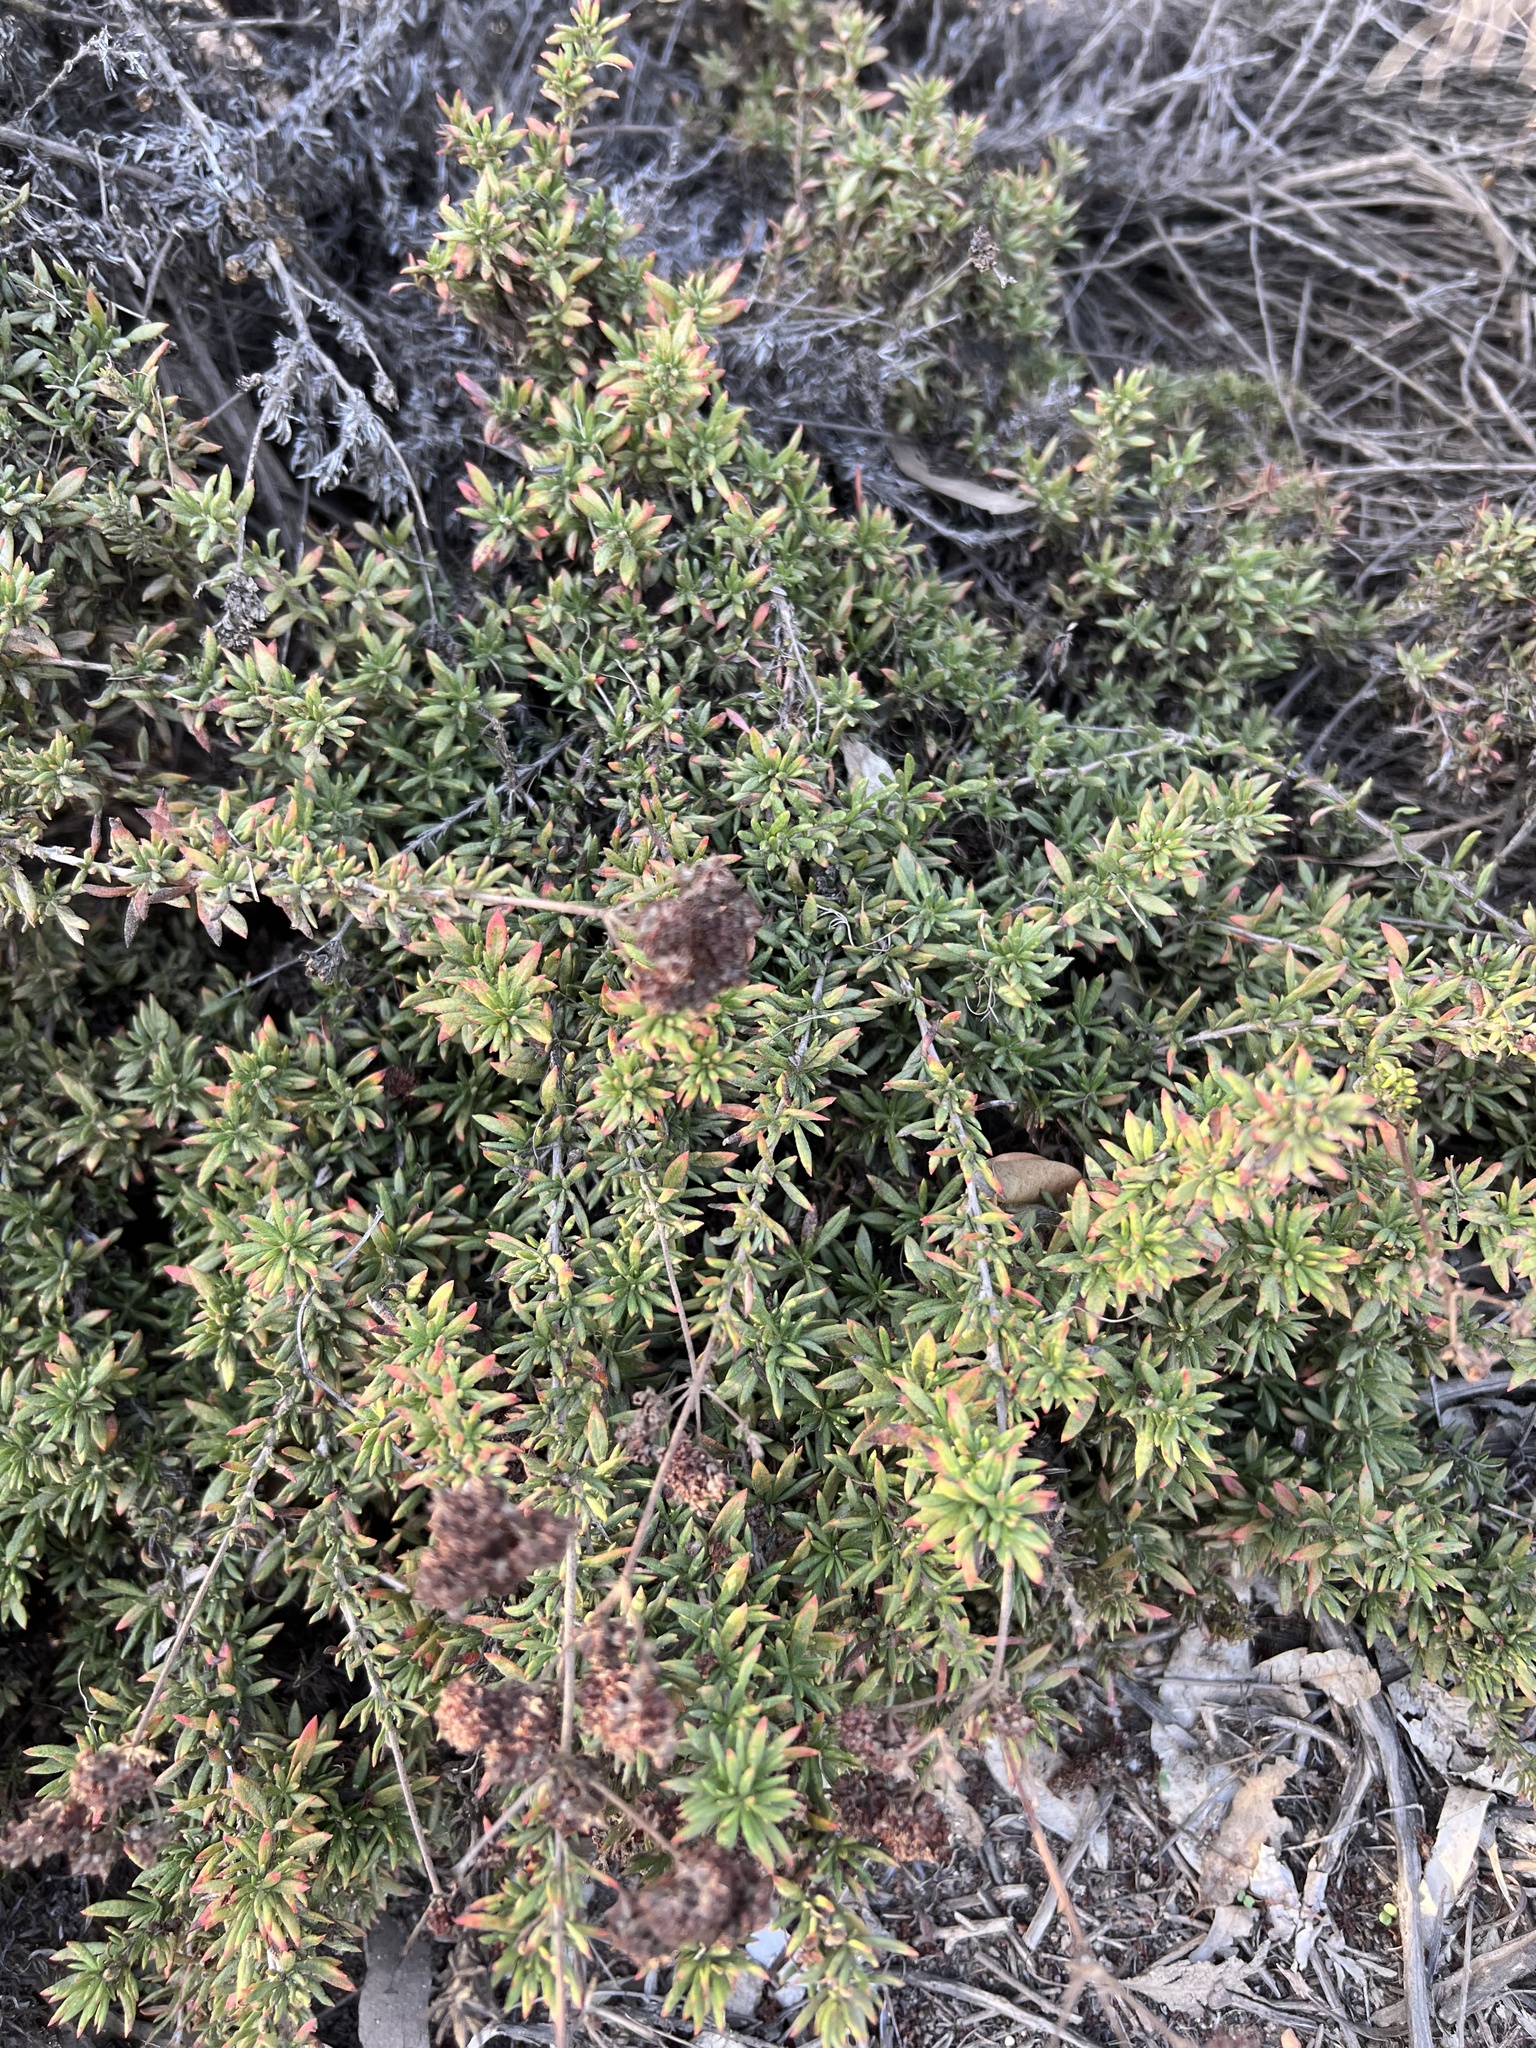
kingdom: Plantae
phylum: Tracheophyta
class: Magnoliopsida
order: Caryophyllales
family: Polygonaceae
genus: Eriogonum
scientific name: Eriogonum fasciculatum
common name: California wild buckwheat
